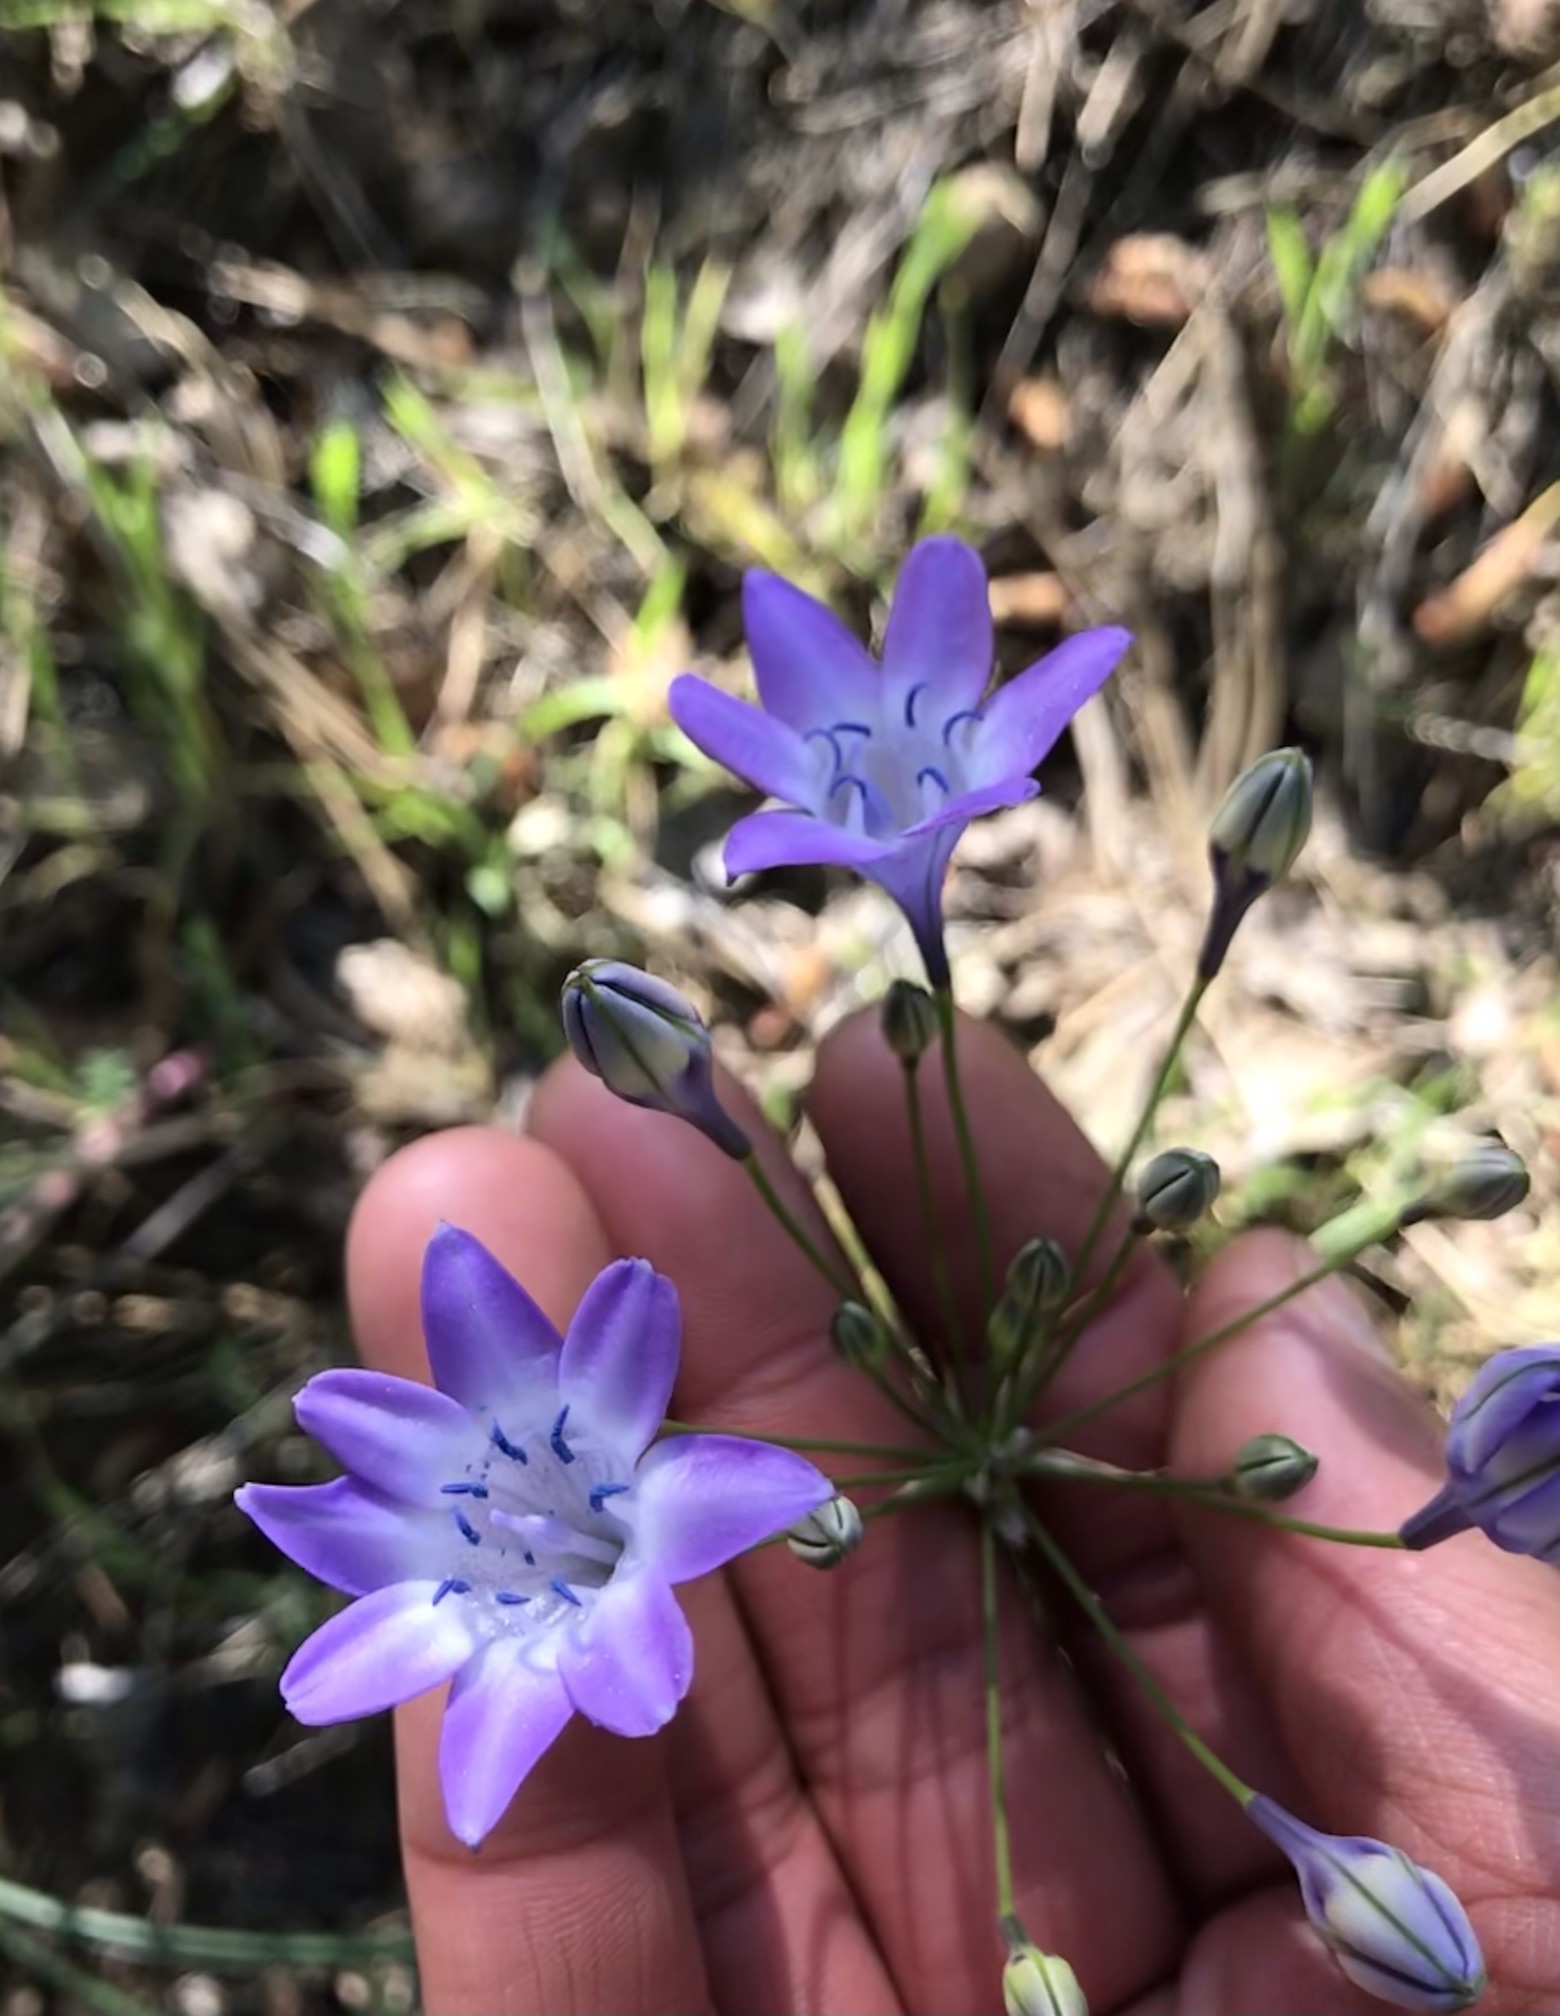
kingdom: Plantae
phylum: Tracheophyta
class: Liliopsida
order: Asparagales
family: Asparagaceae
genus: Triteleia
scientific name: Triteleia bridgesii
